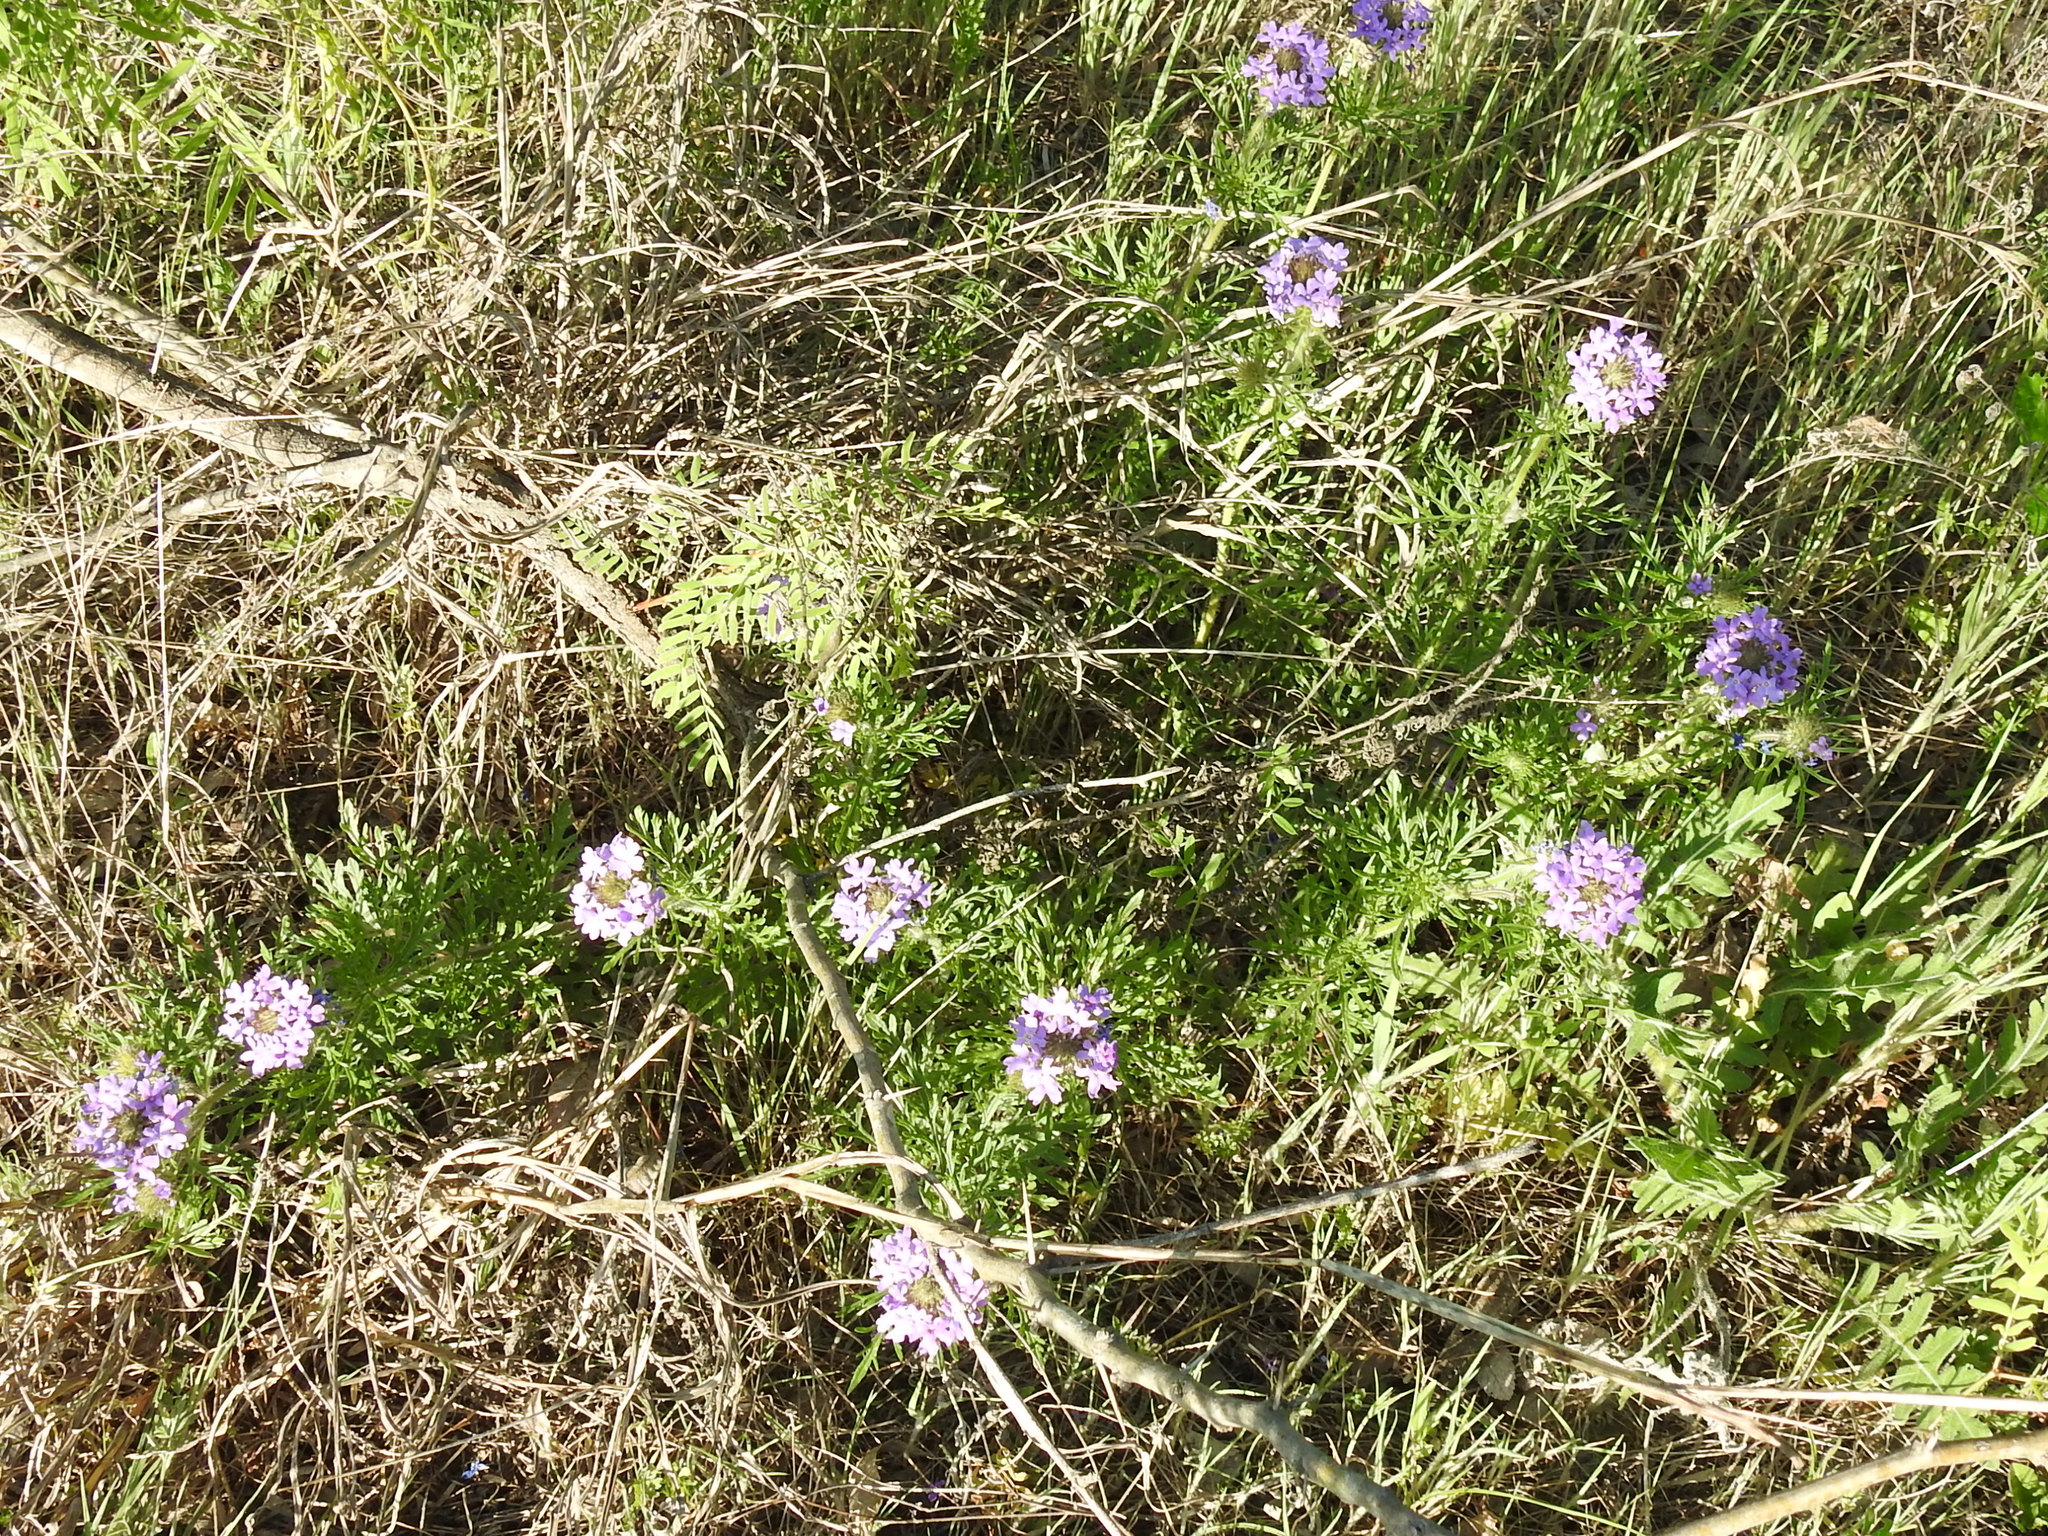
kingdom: Plantae
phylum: Tracheophyta
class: Magnoliopsida
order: Lamiales
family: Verbenaceae
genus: Verbena
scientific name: Verbena bipinnatifida
